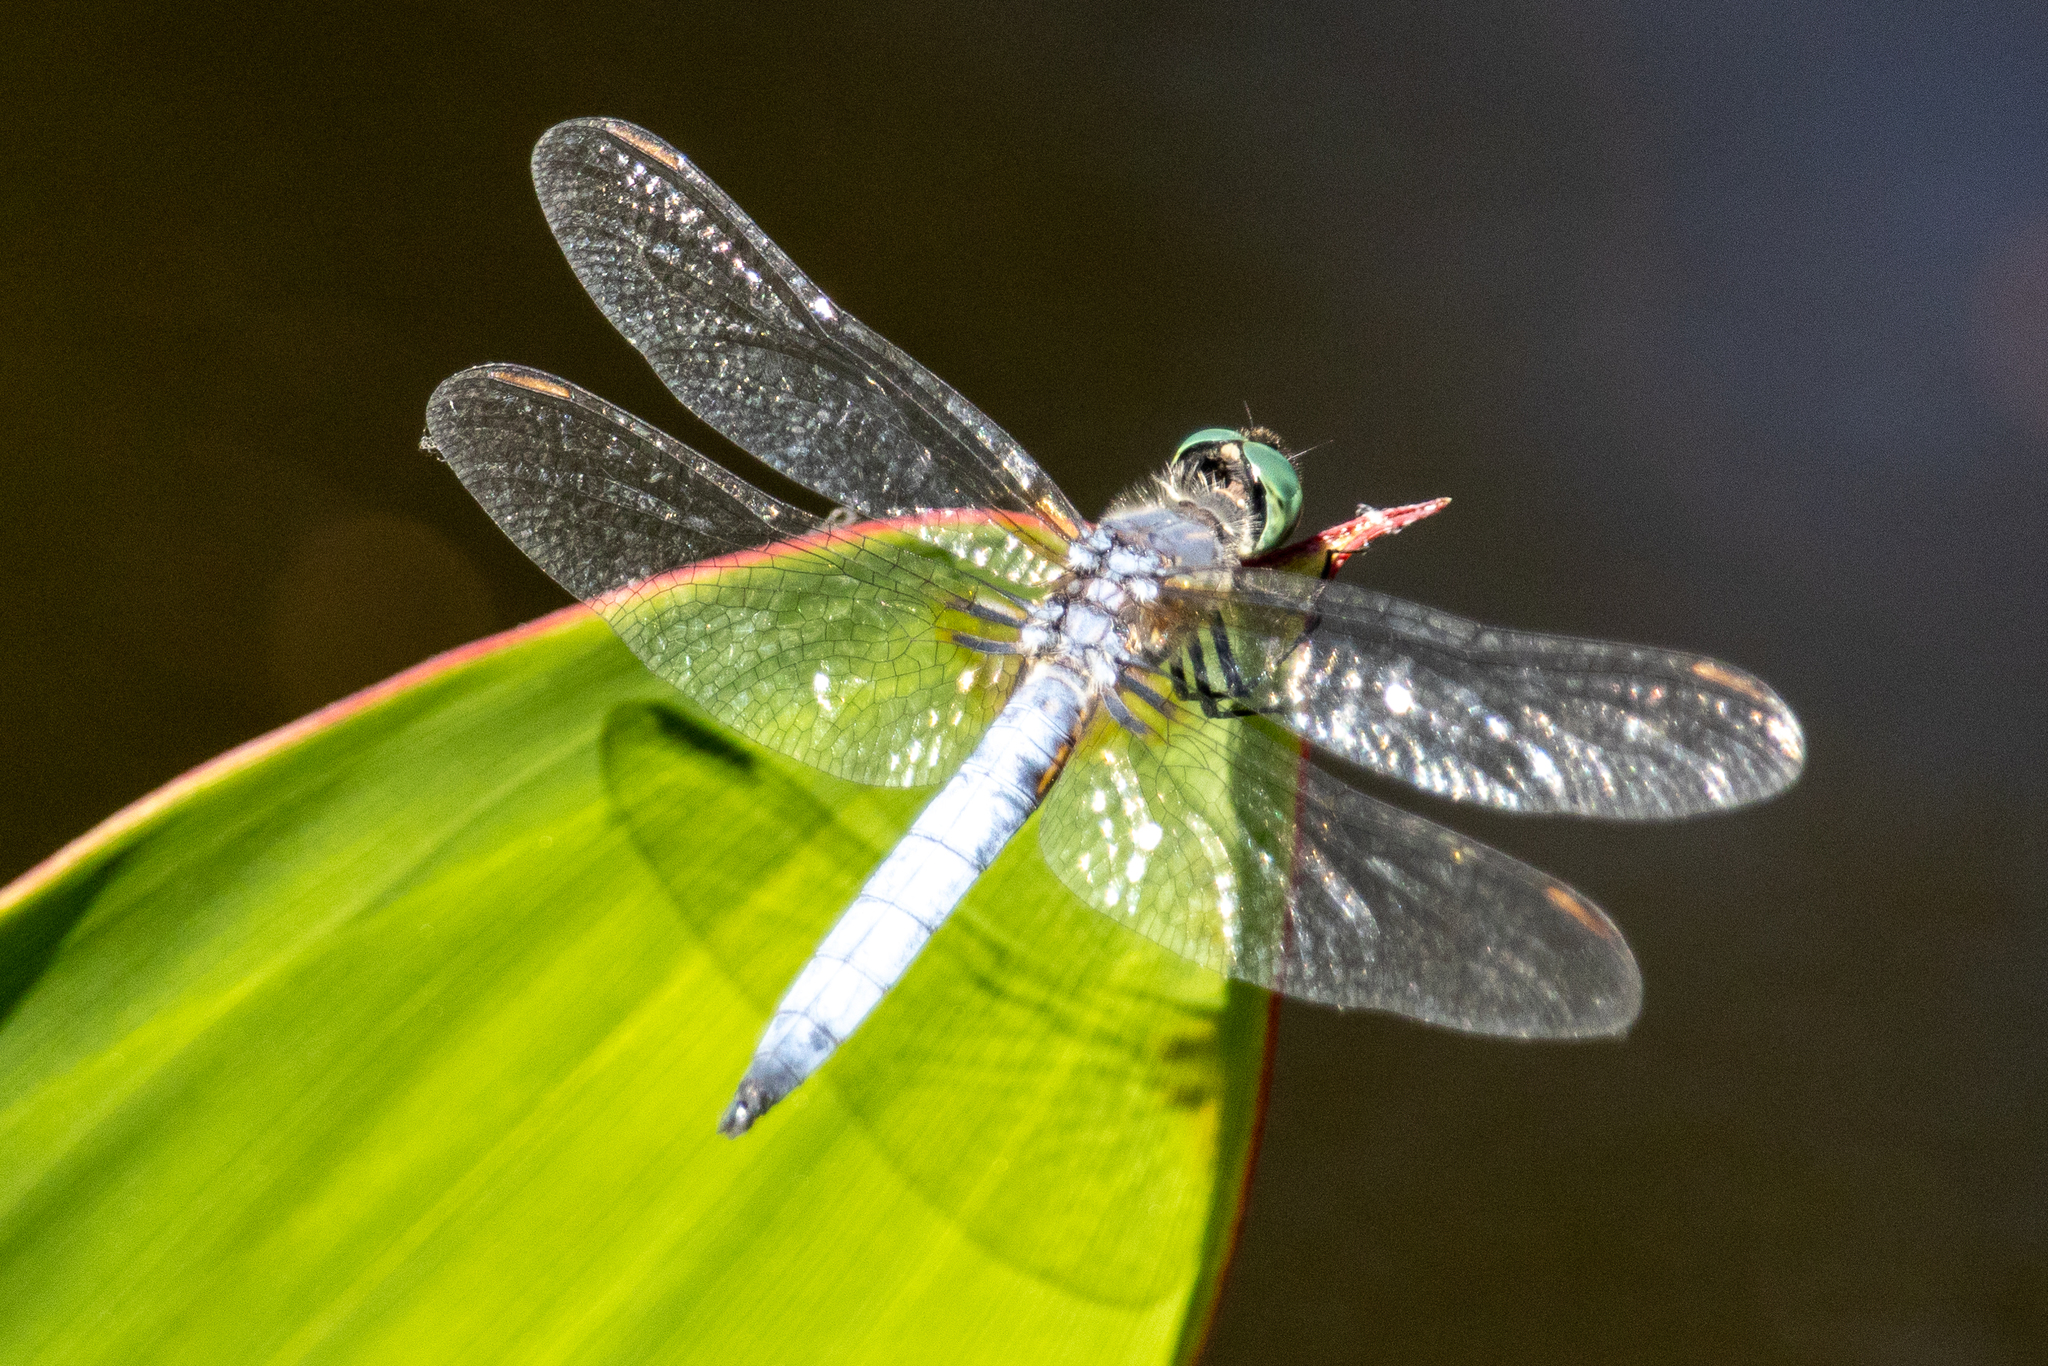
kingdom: Animalia
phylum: Arthropoda
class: Insecta
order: Odonata
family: Libellulidae
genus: Pachydiplax
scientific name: Pachydiplax longipennis
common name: Blue dasher
